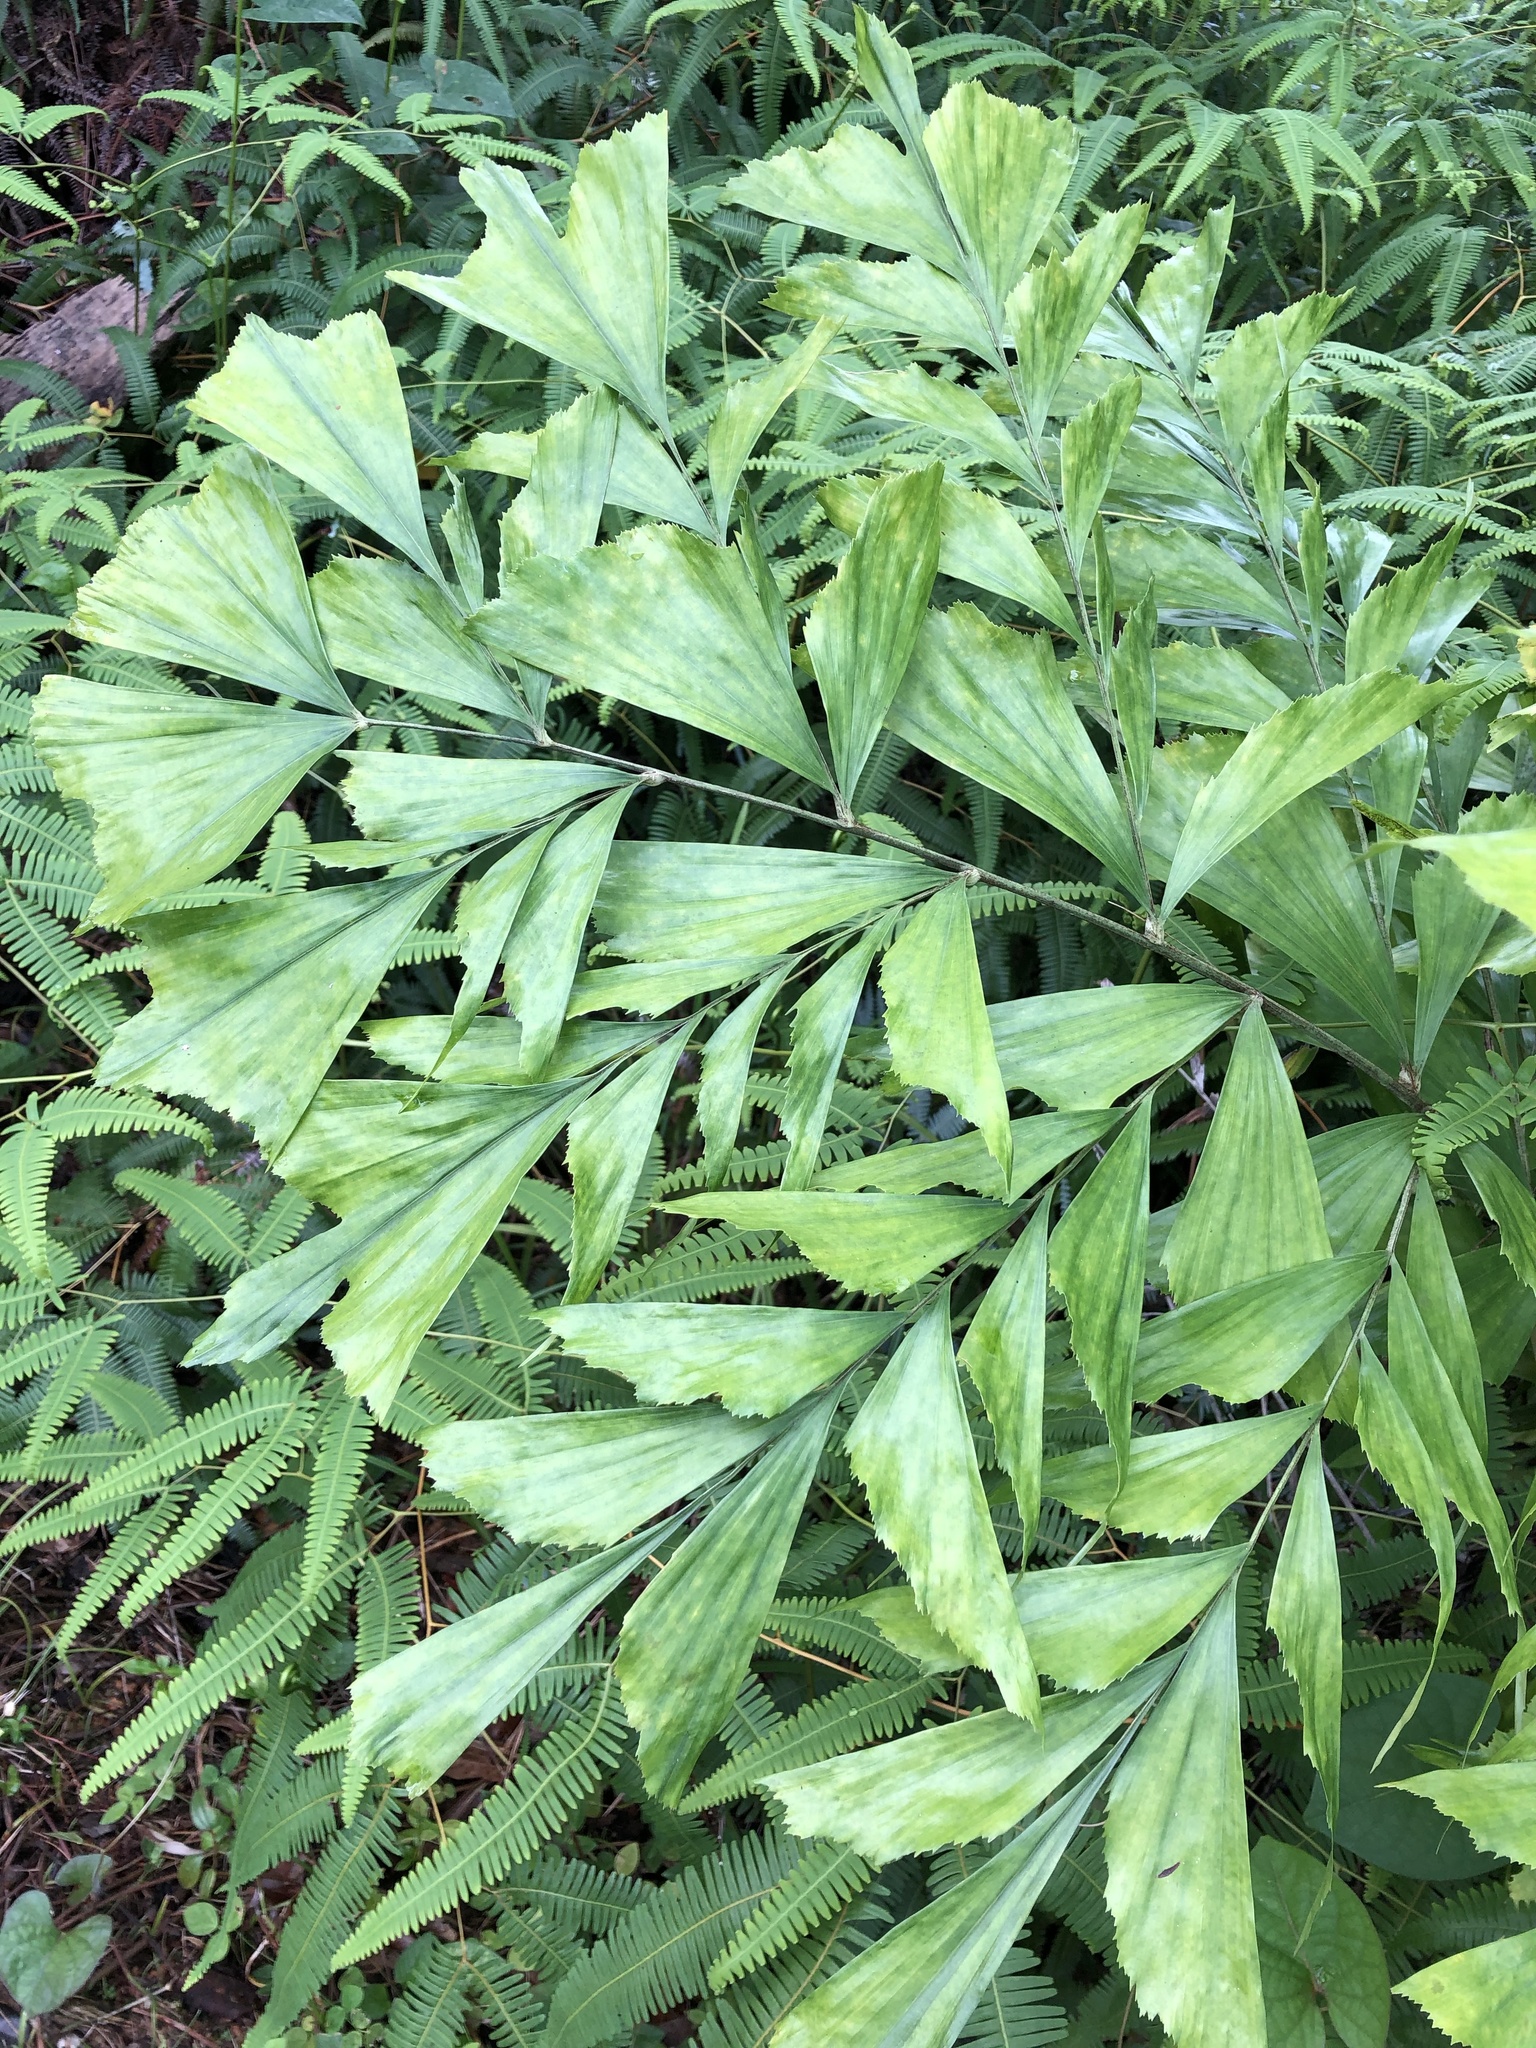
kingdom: Plantae
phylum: Tracheophyta
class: Liliopsida
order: Arecales
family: Arecaceae
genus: Caryota
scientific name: Caryota mitis
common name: Burmese fishtail palm
